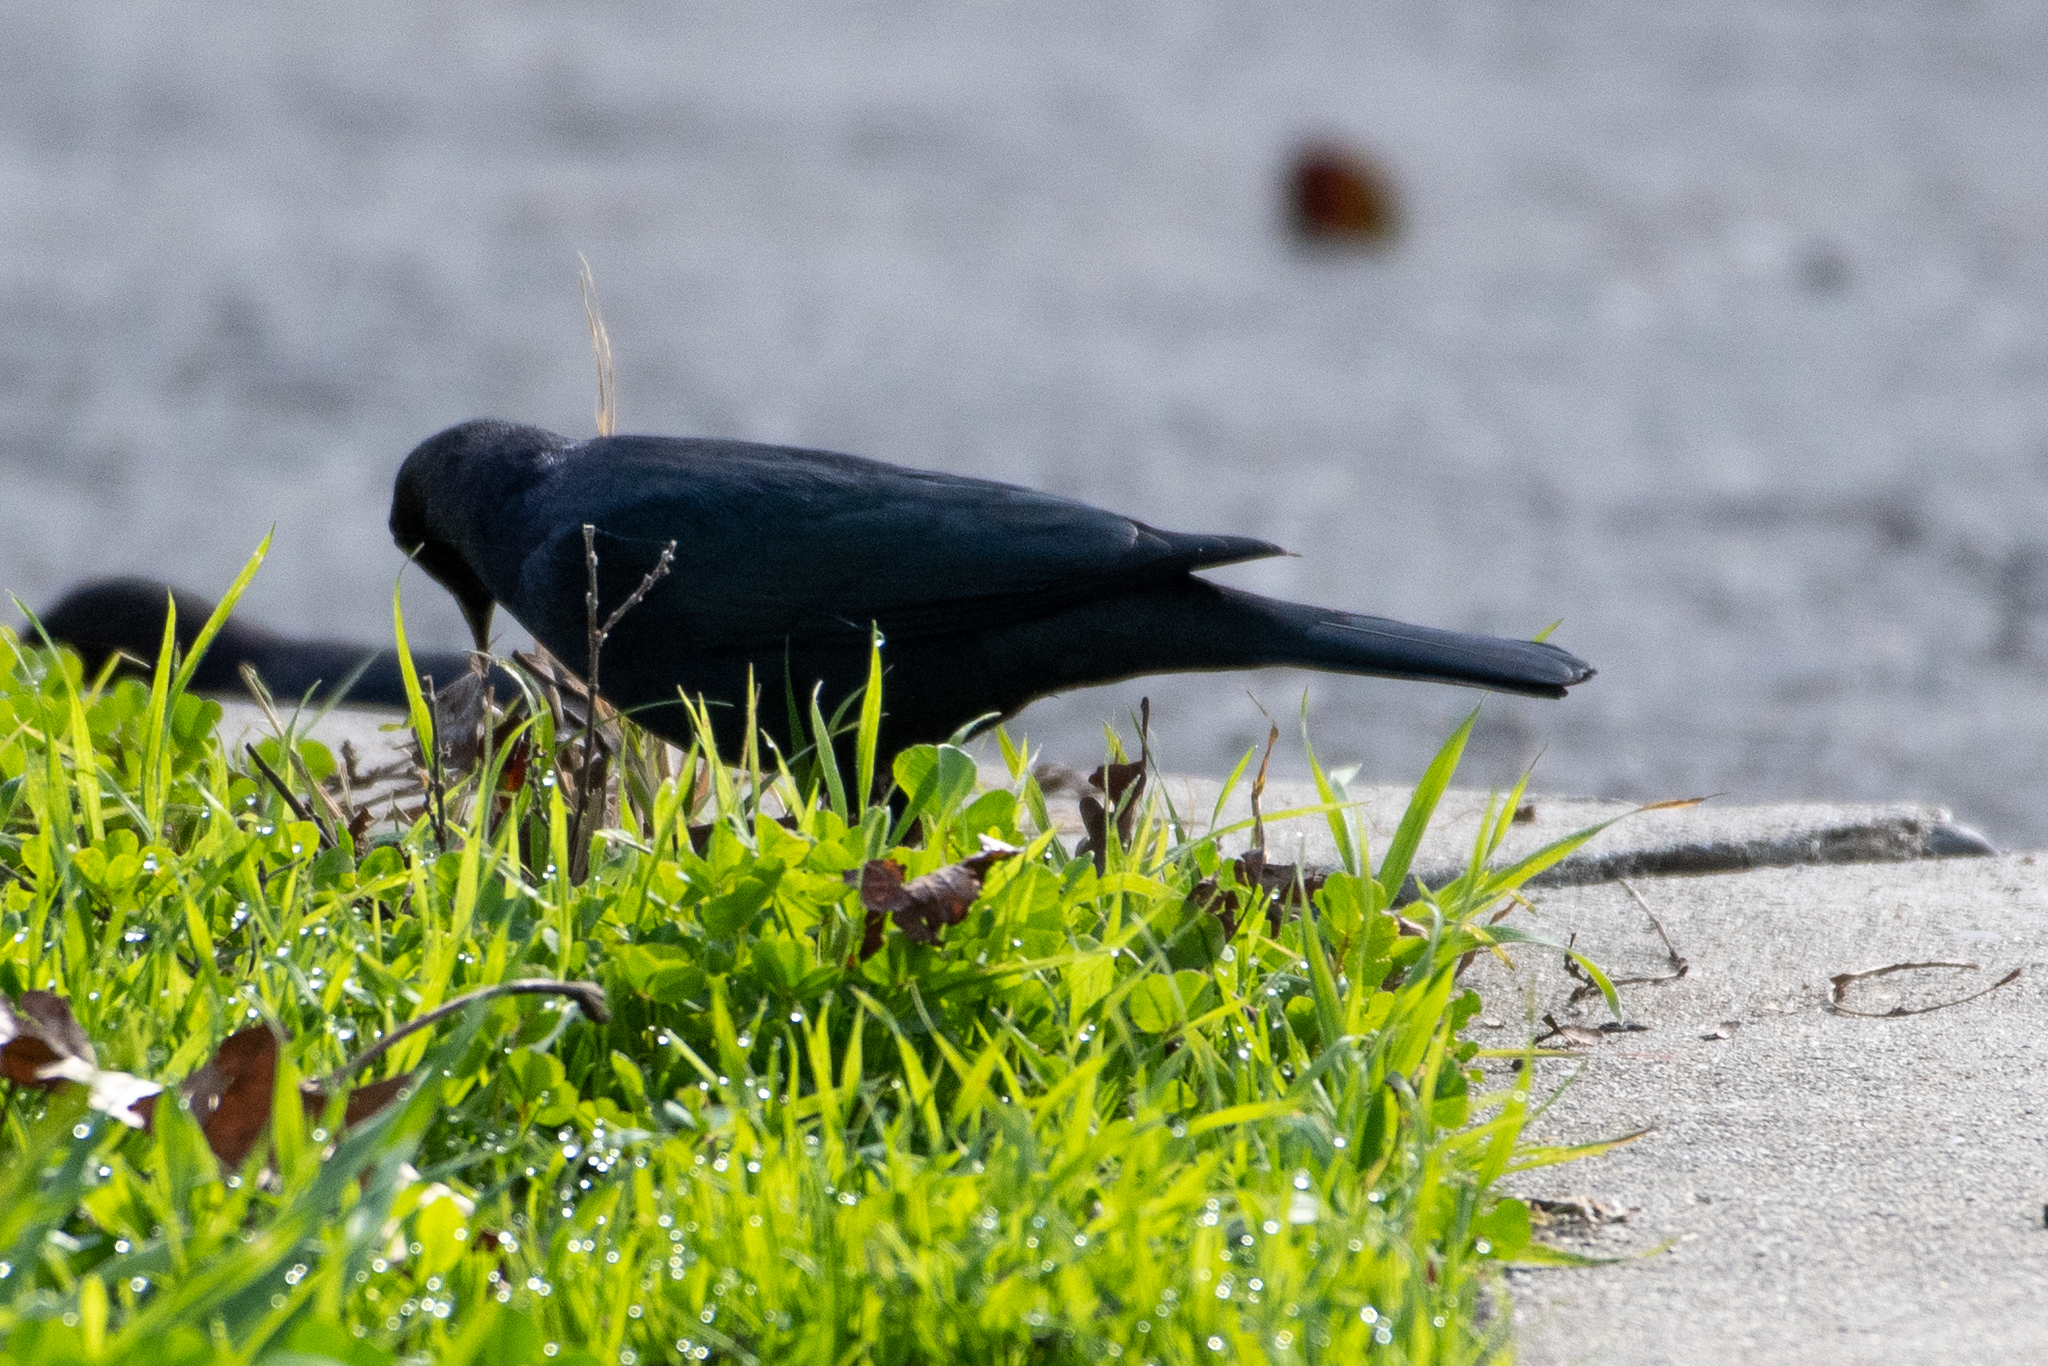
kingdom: Animalia
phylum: Chordata
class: Aves
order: Passeriformes
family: Icteridae
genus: Euphagus
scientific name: Euphagus cyanocephalus
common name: Brewer's blackbird
